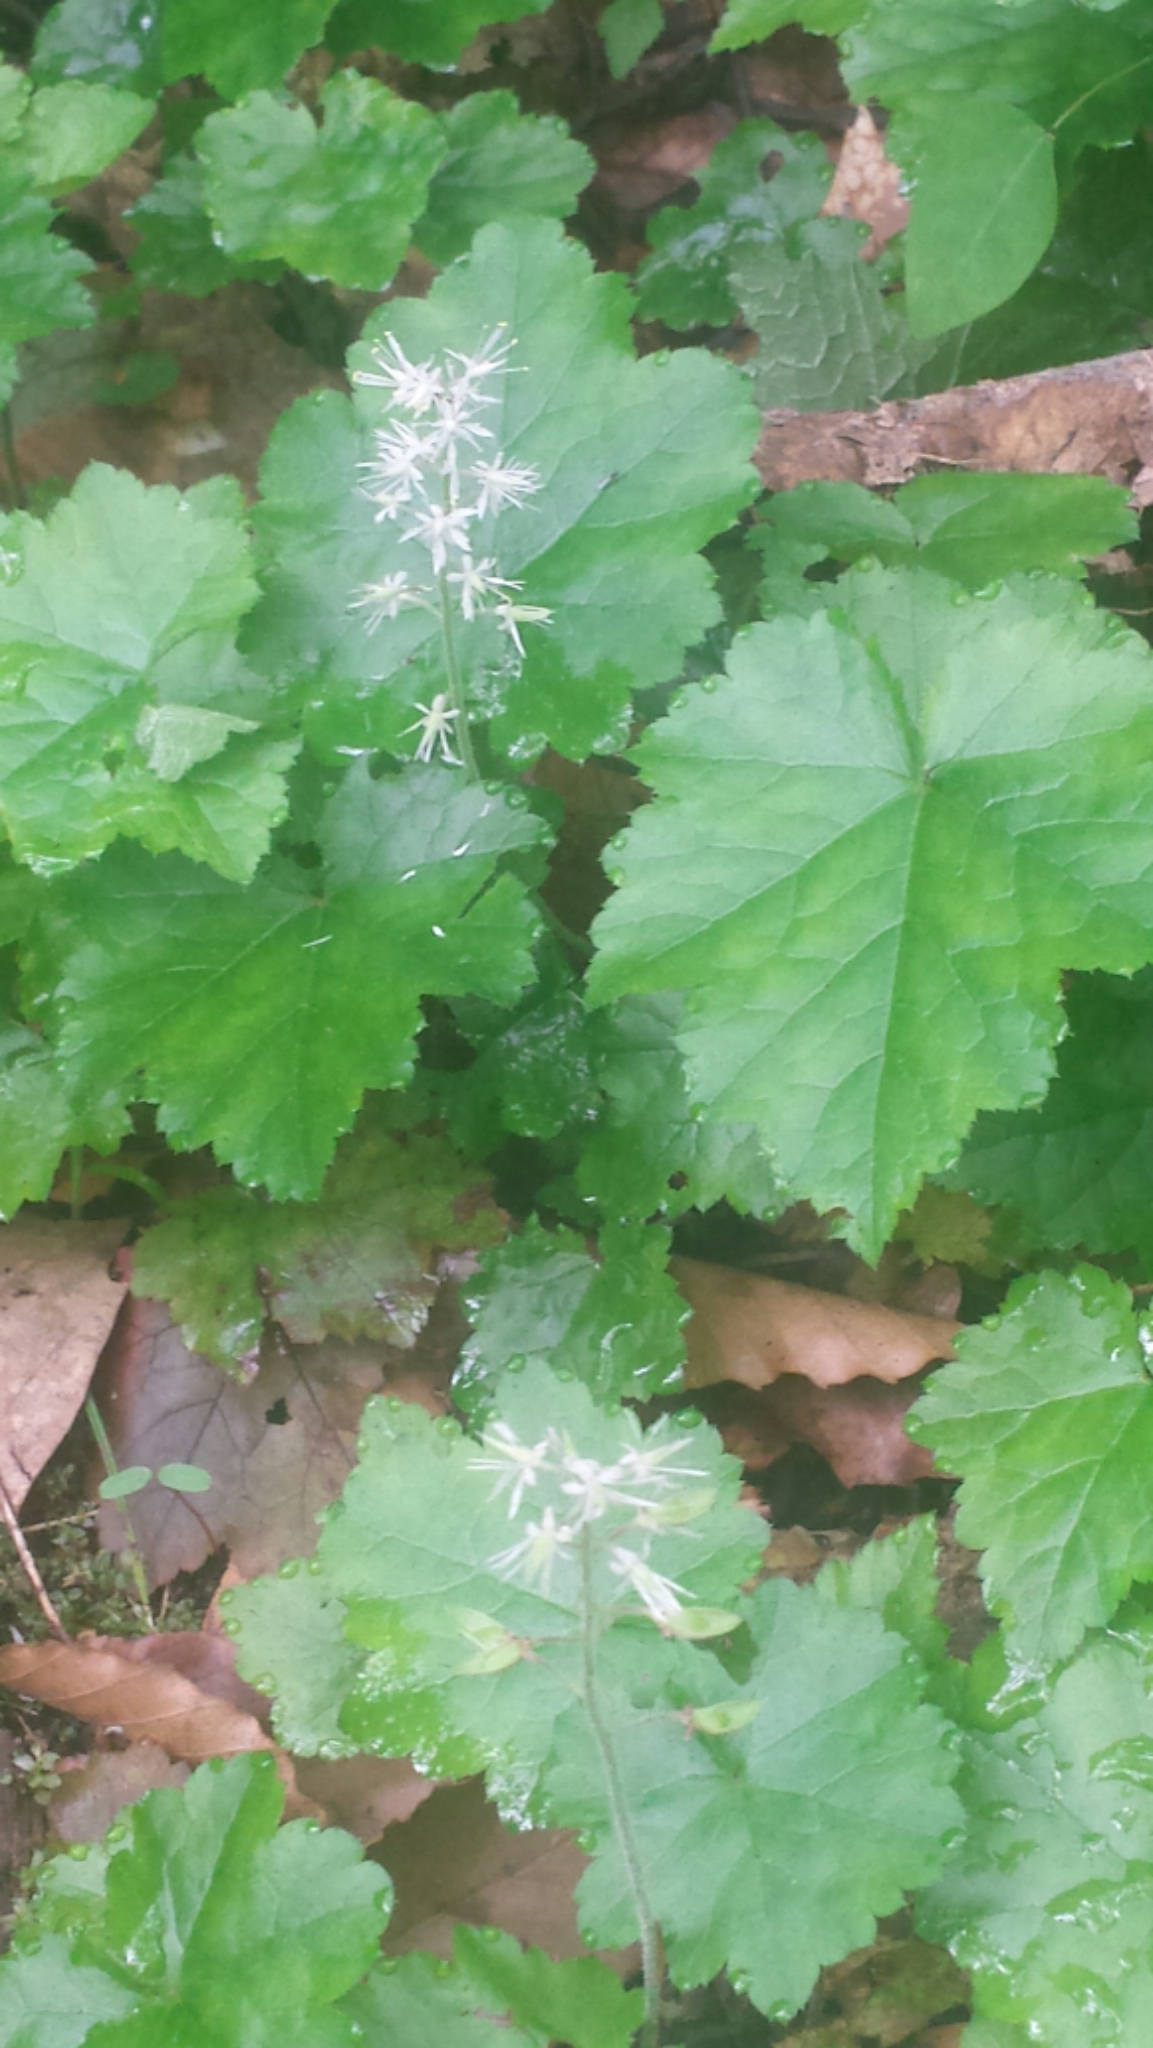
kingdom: Plantae
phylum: Tracheophyta
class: Magnoliopsida
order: Saxifragales
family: Saxifragaceae
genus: Tiarella
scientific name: Tiarella stolonifera
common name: Stoloniferous foamflower
